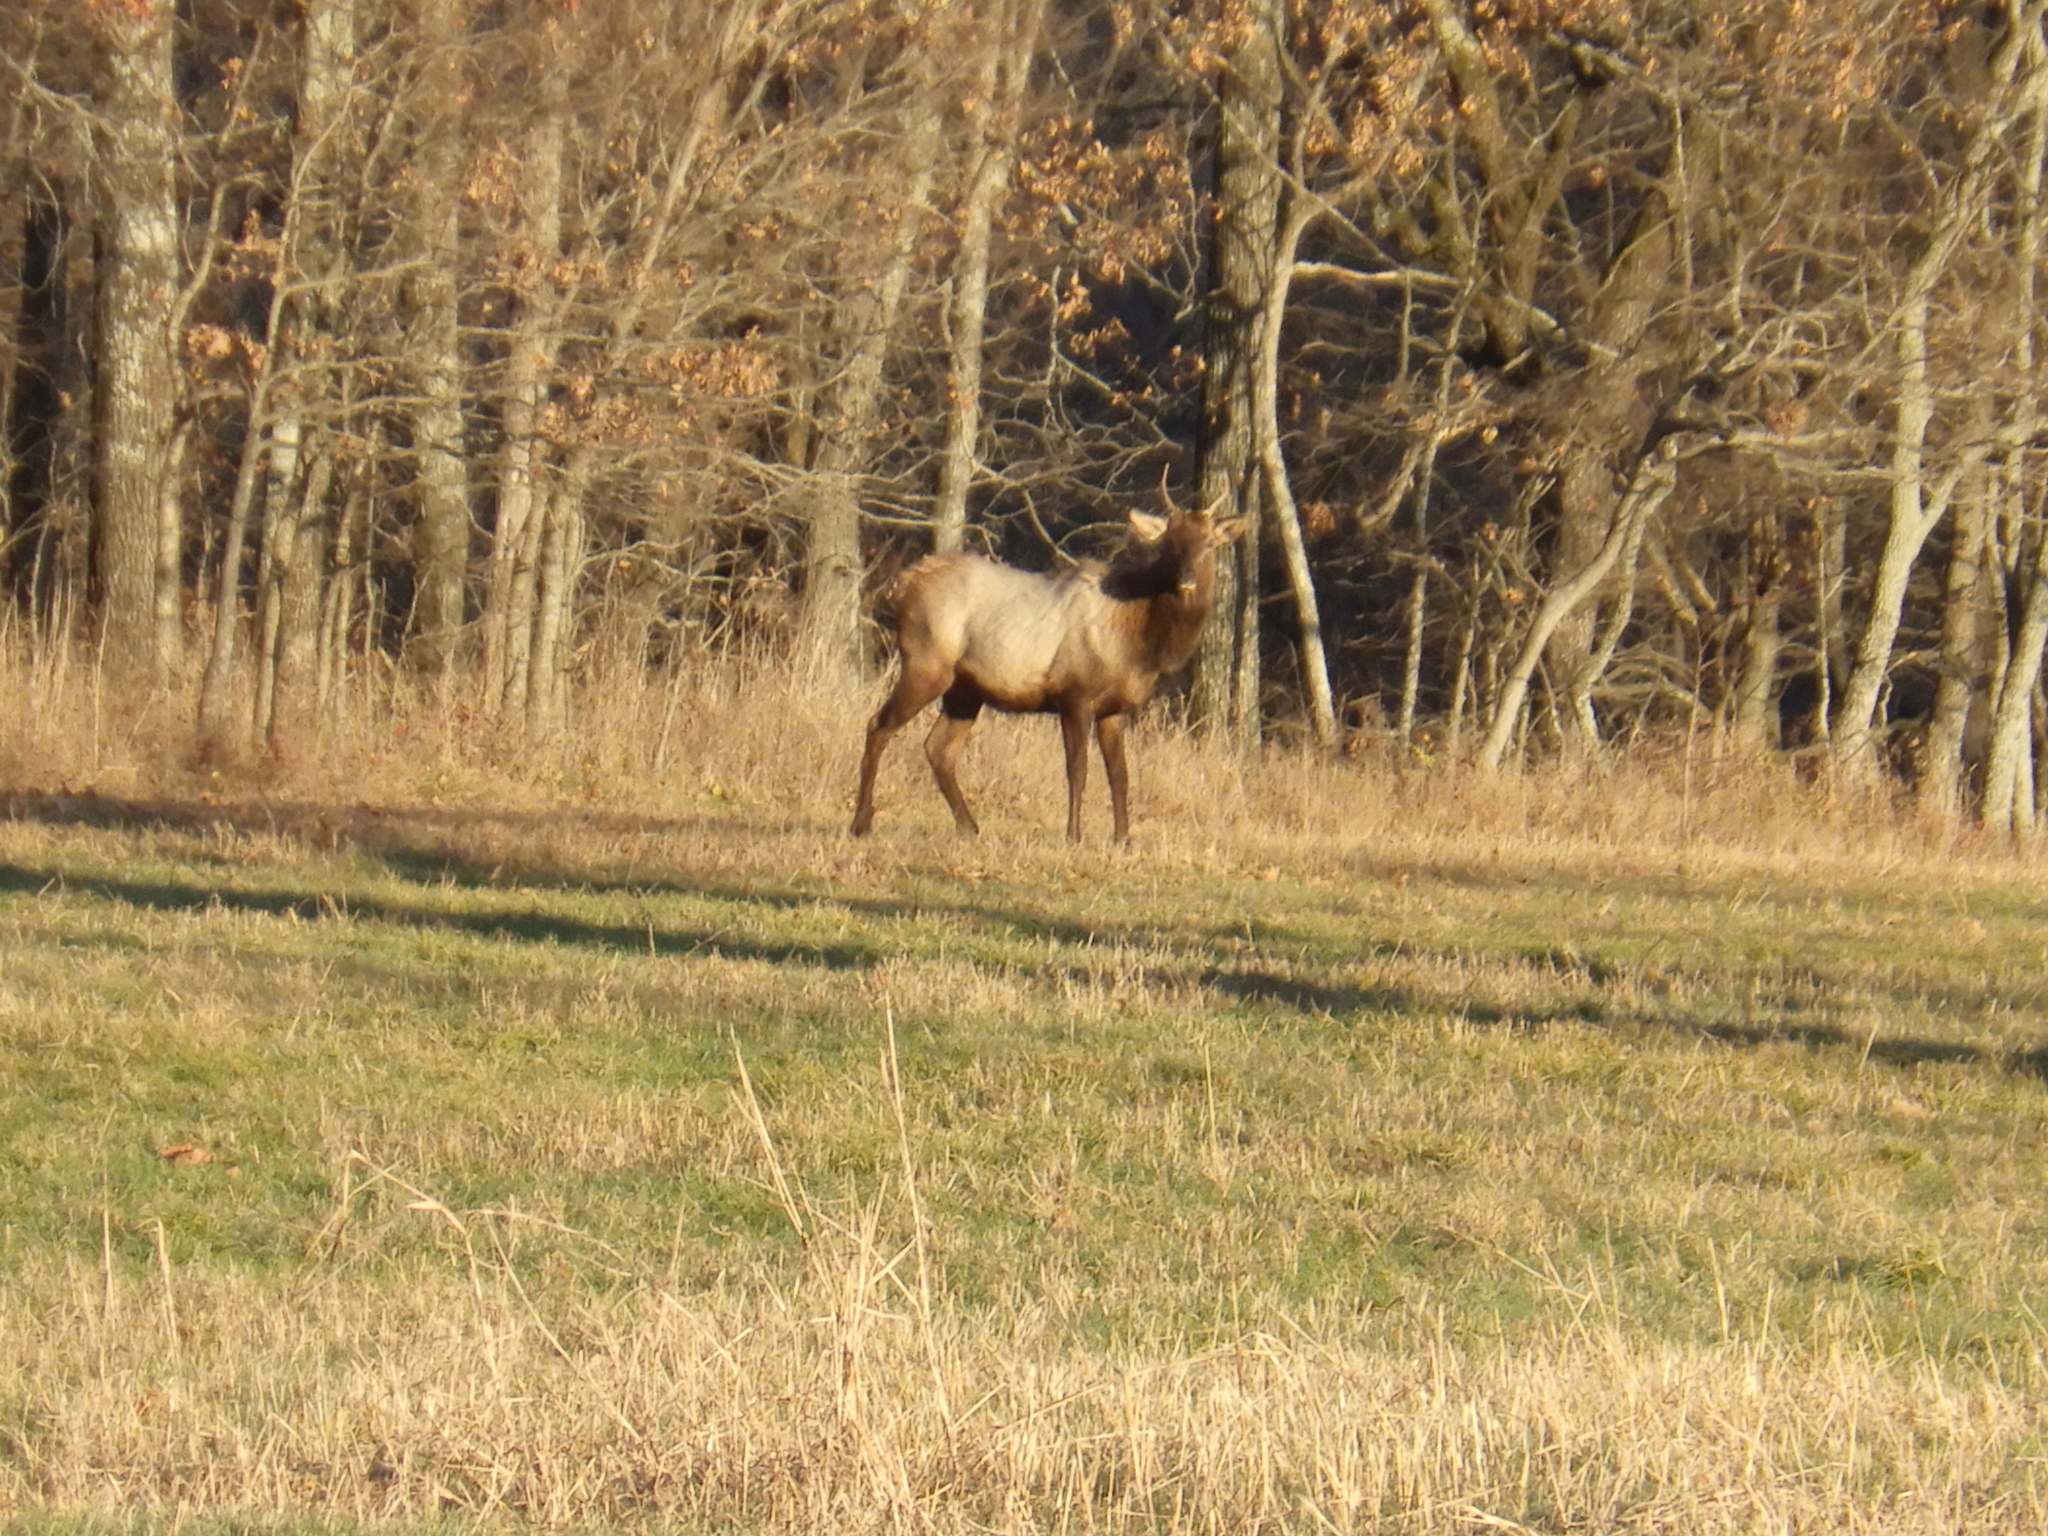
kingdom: Animalia
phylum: Chordata
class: Mammalia
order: Artiodactyla
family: Cervidae
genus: Cervus
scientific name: Cervus elaphus
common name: Red deer
